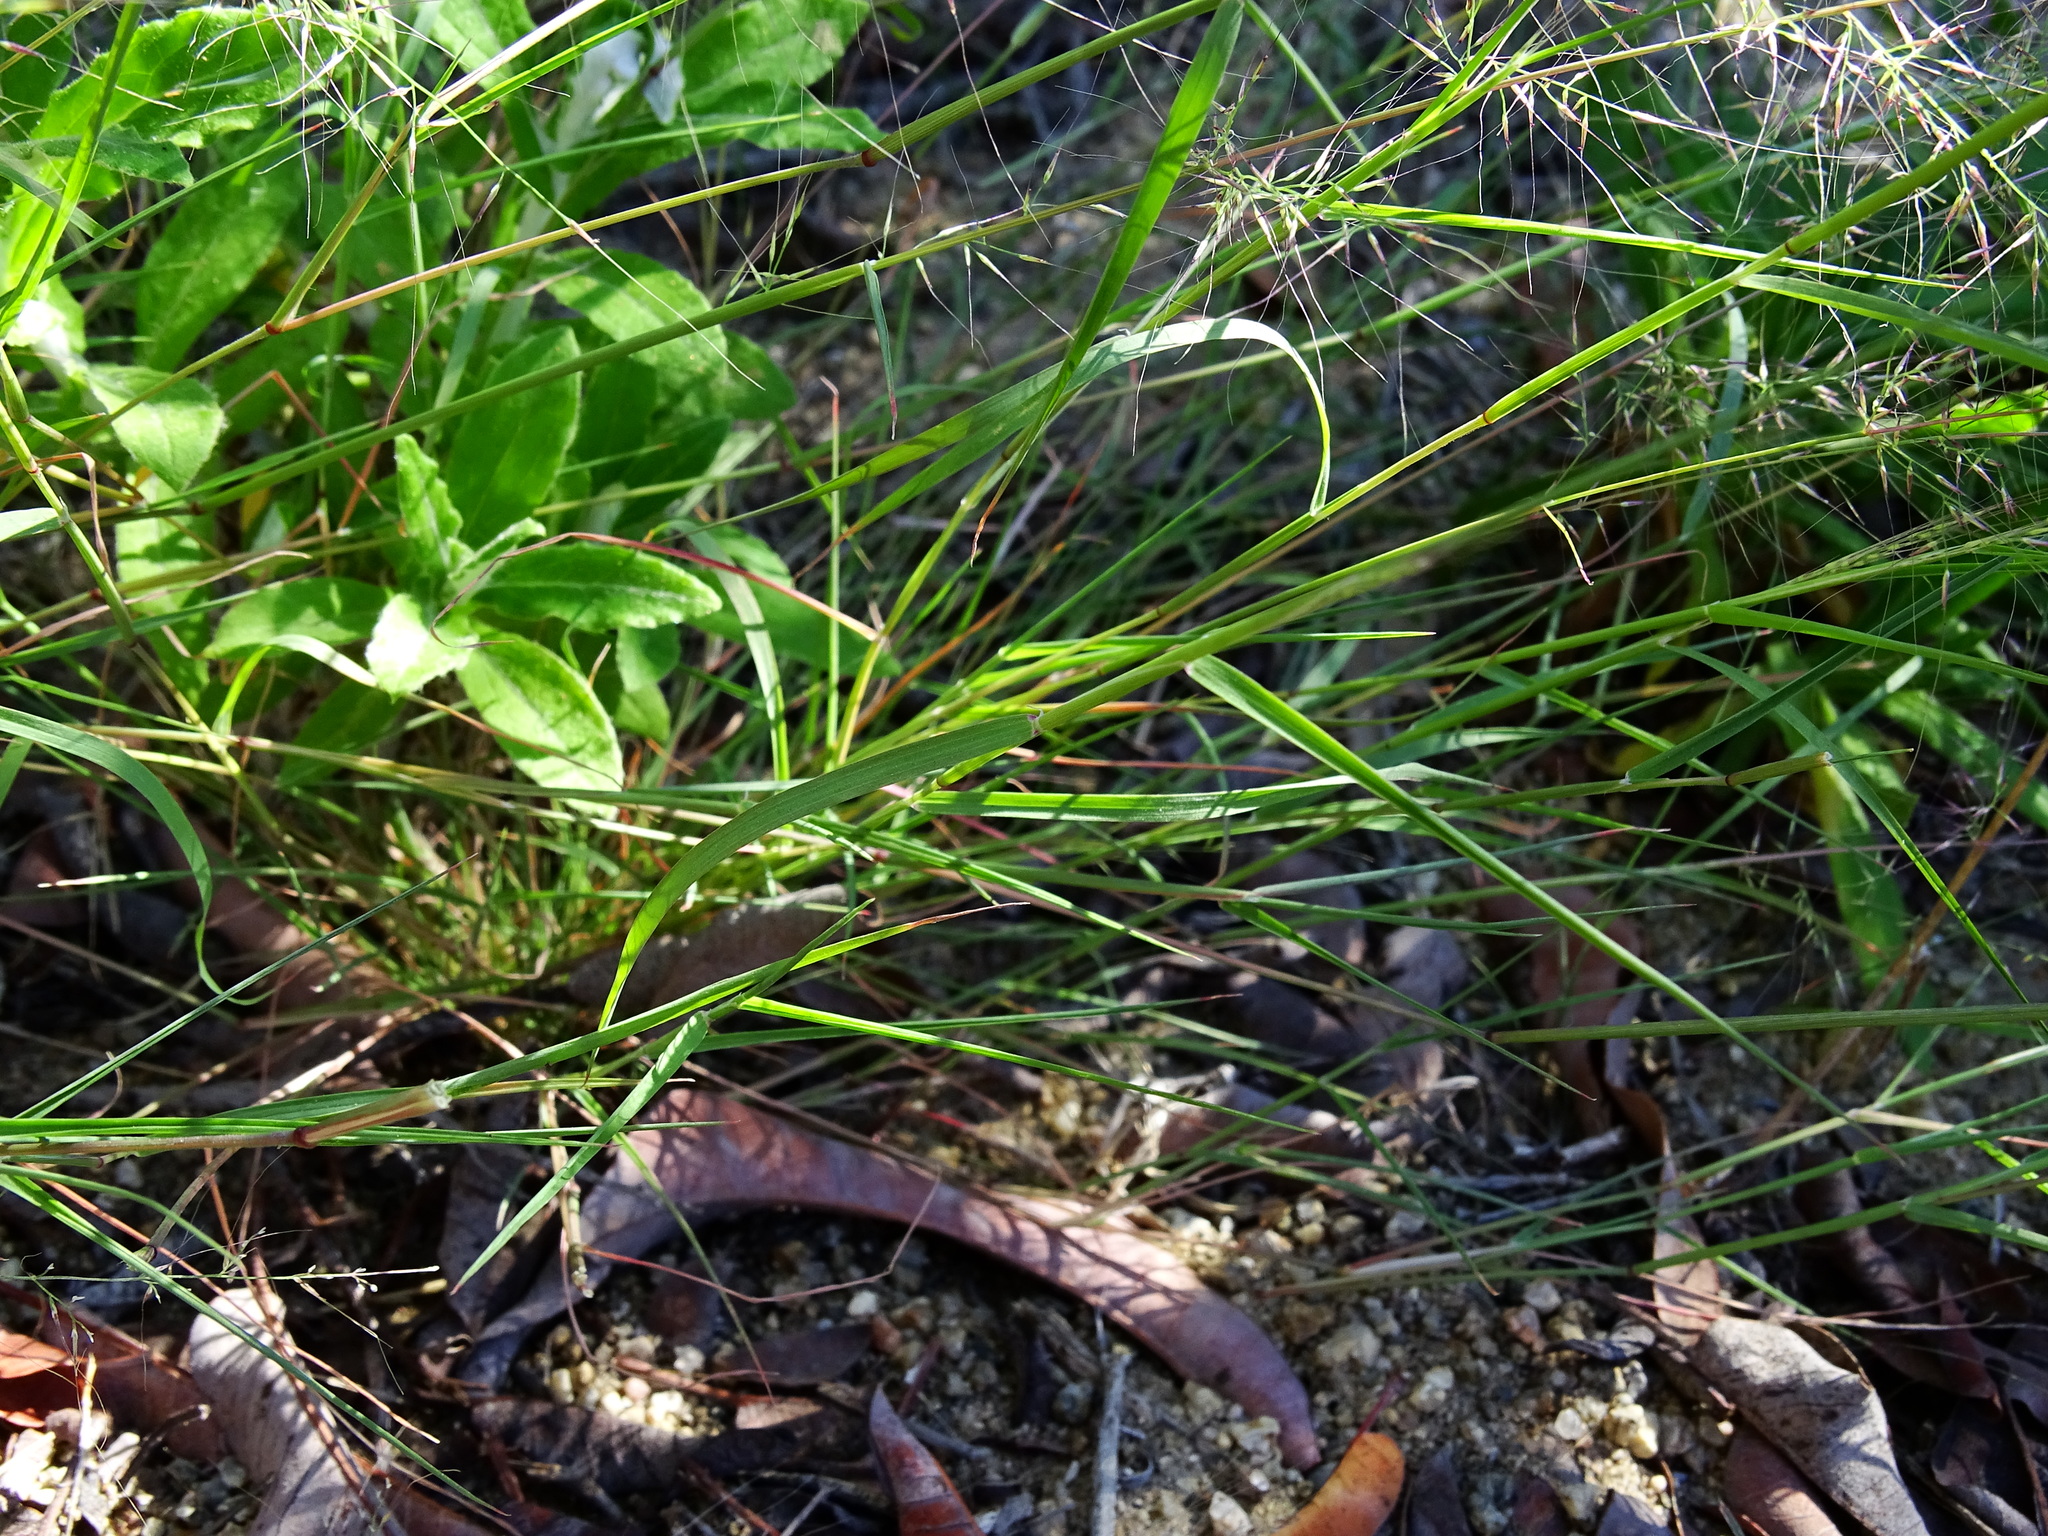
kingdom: Plantae
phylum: Tracheophyta
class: Liliopsida
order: Poales
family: Poaceae
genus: Muhlenbergia
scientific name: Muhlenbergia microsperma
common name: Littleseed muhly
